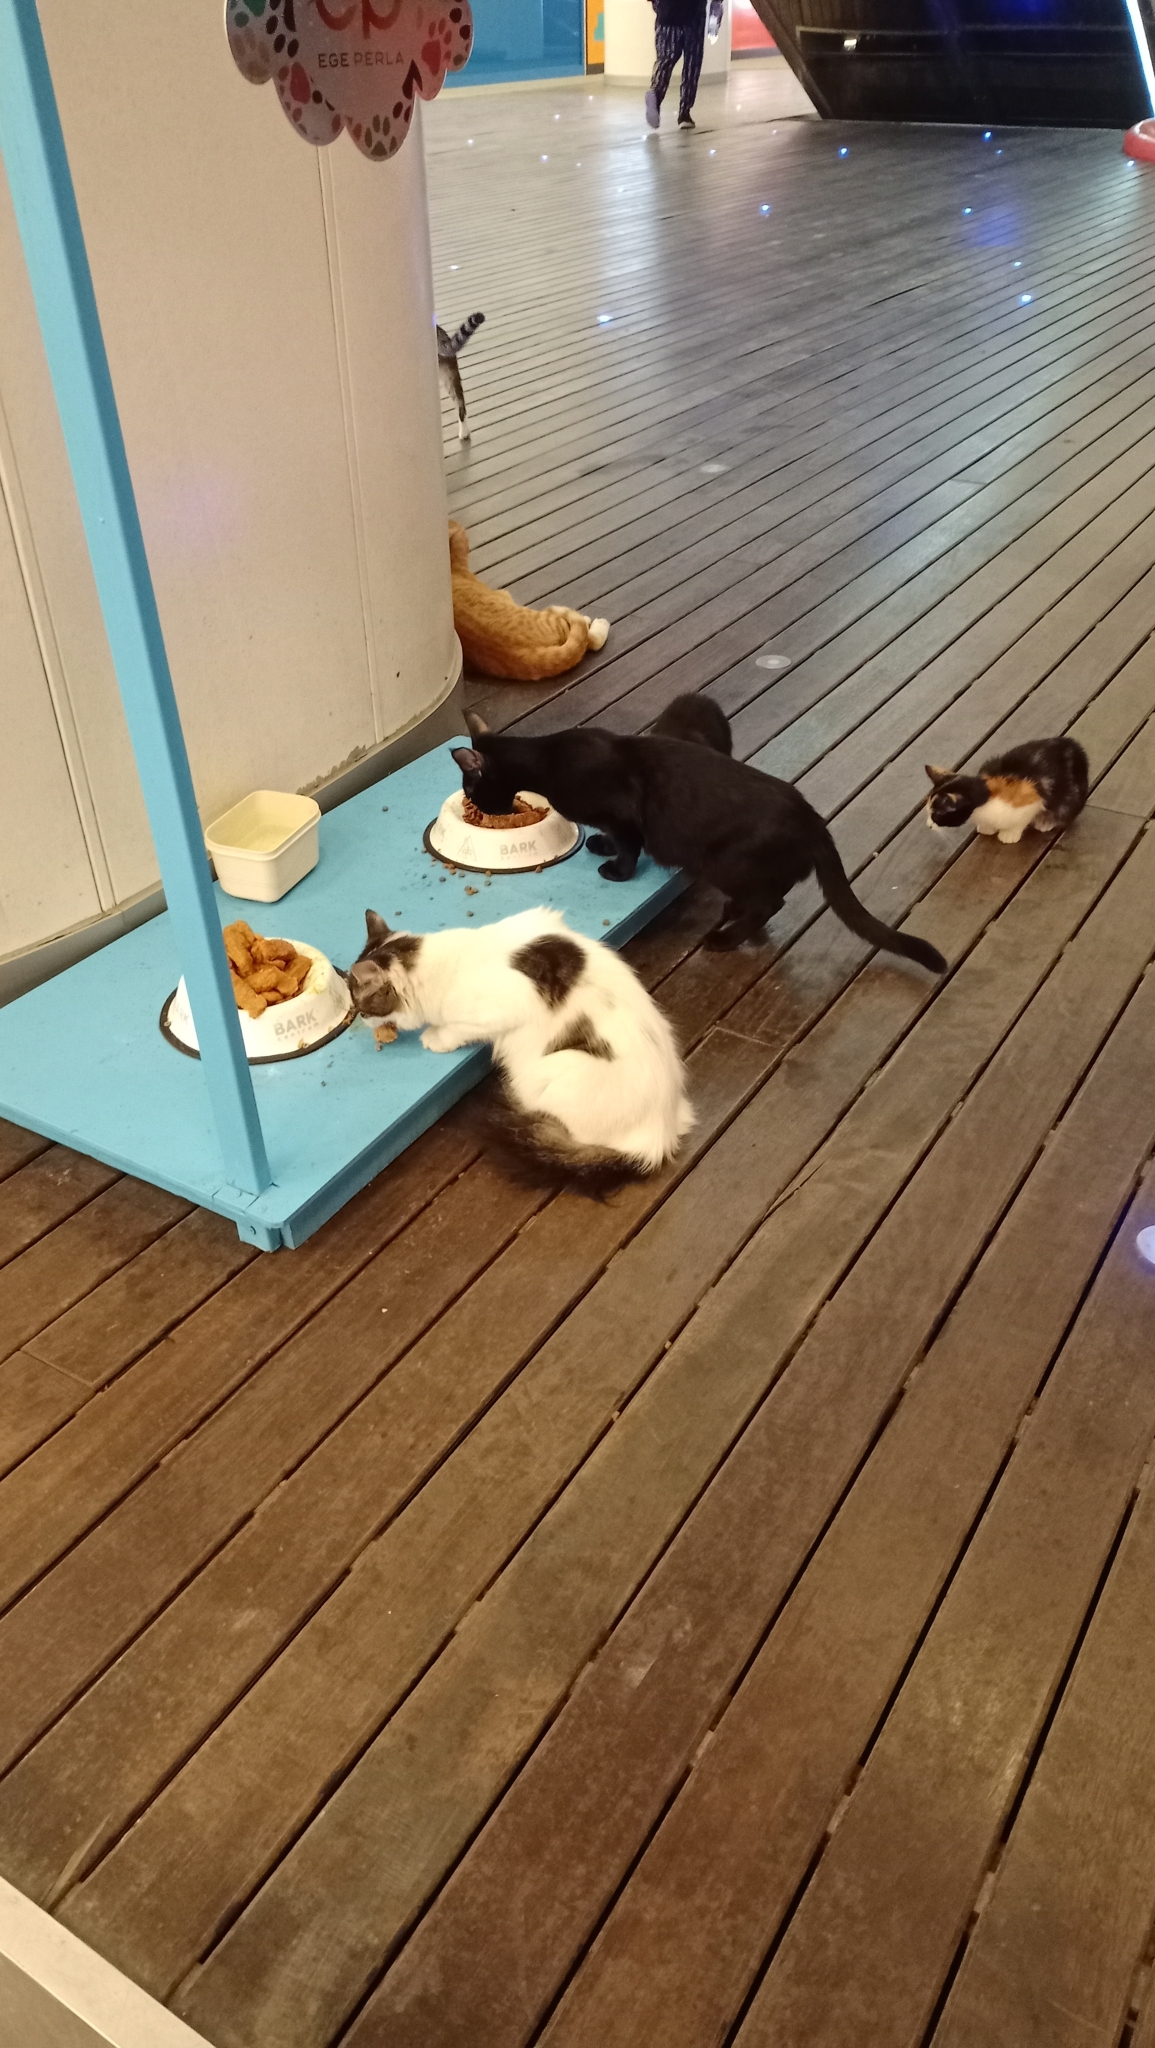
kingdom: Animalia
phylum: Chordata
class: Mammalia
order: Carnivora
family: Felidae
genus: Felis
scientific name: Felis catus
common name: Domestic cat
